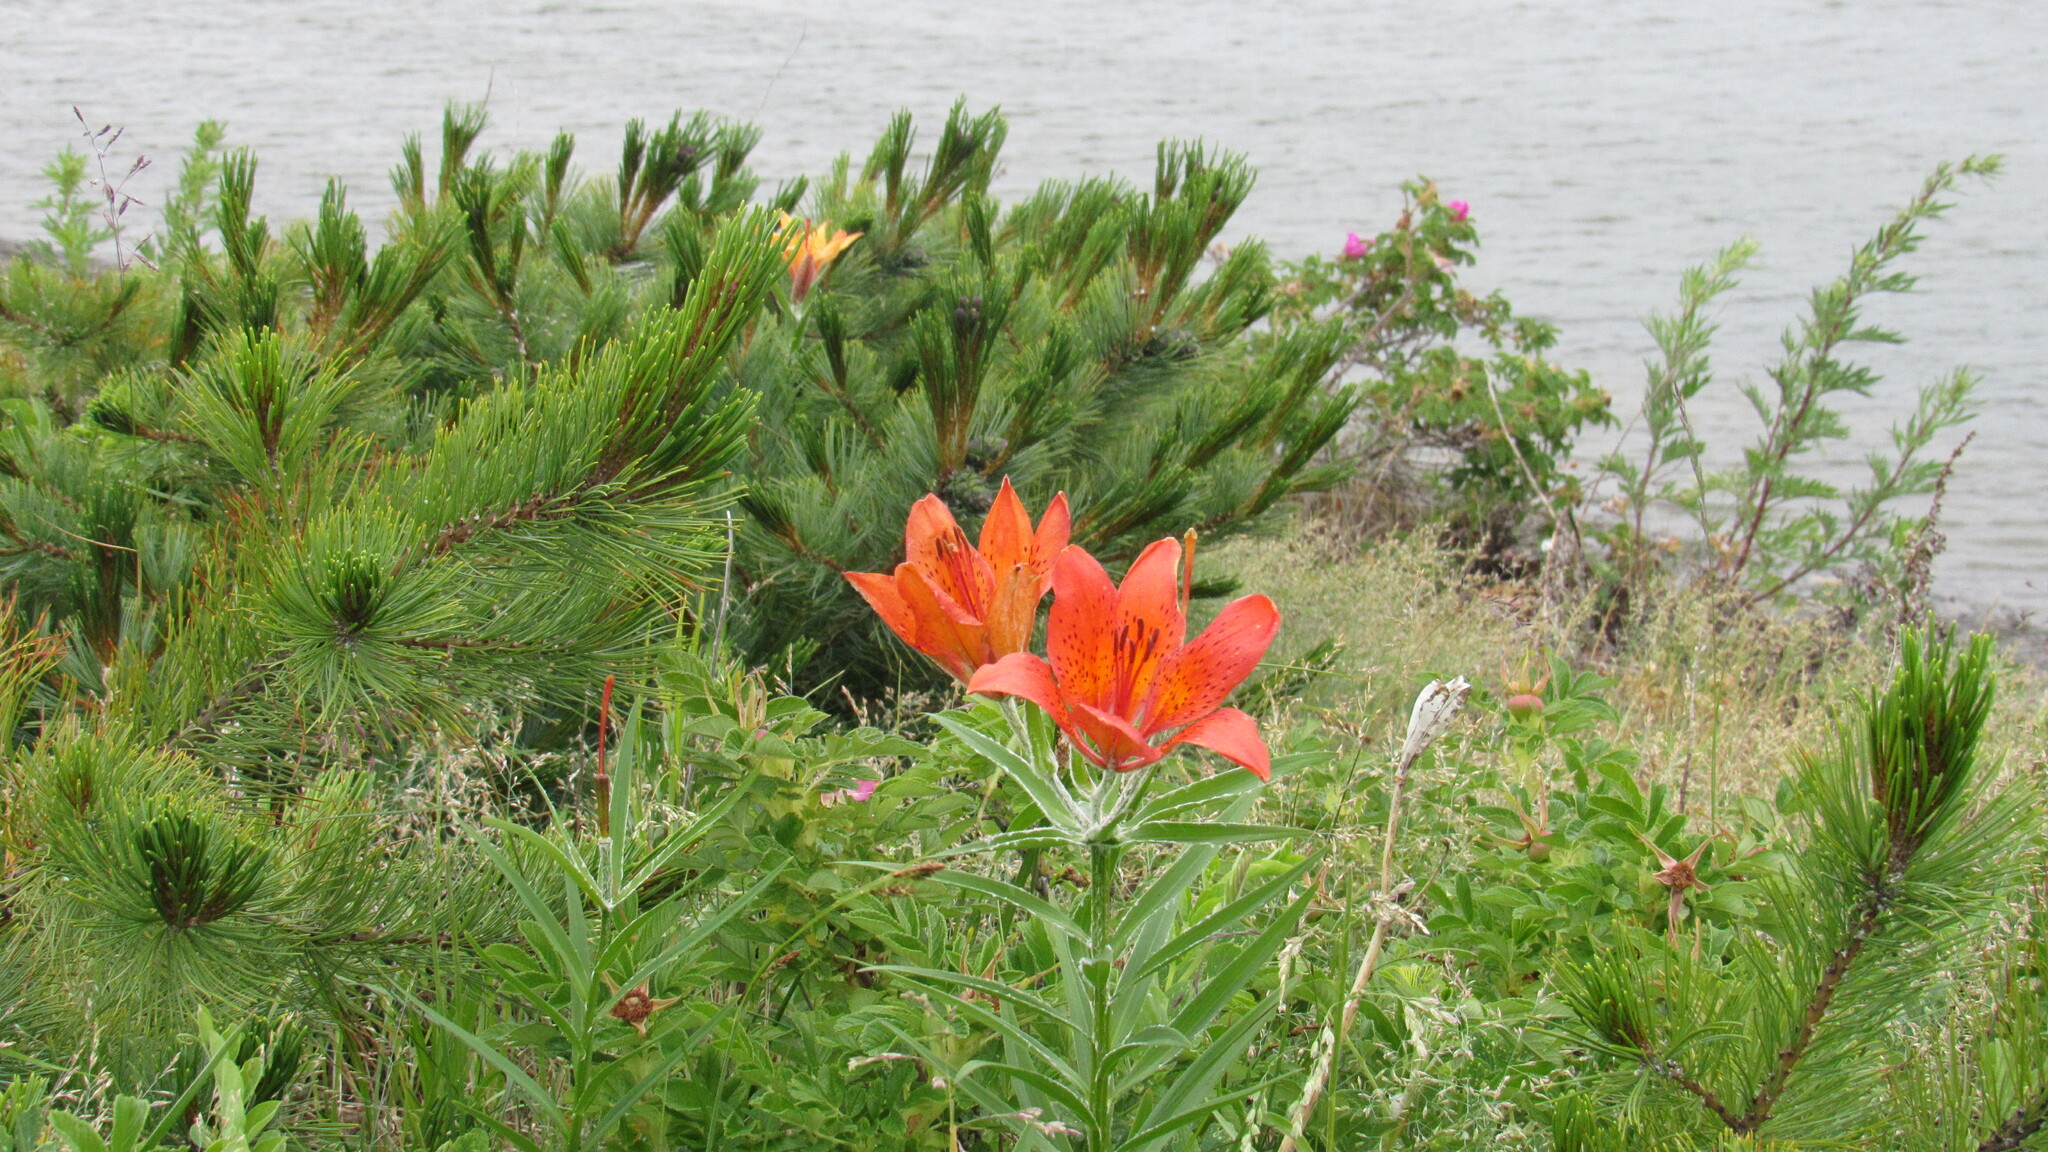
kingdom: Plantae
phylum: Tracheophyta
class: Liliopsida
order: Liliales
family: Liliaceae
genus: Lilium
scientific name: Lilium pensylvanicum
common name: Candlestick lily
